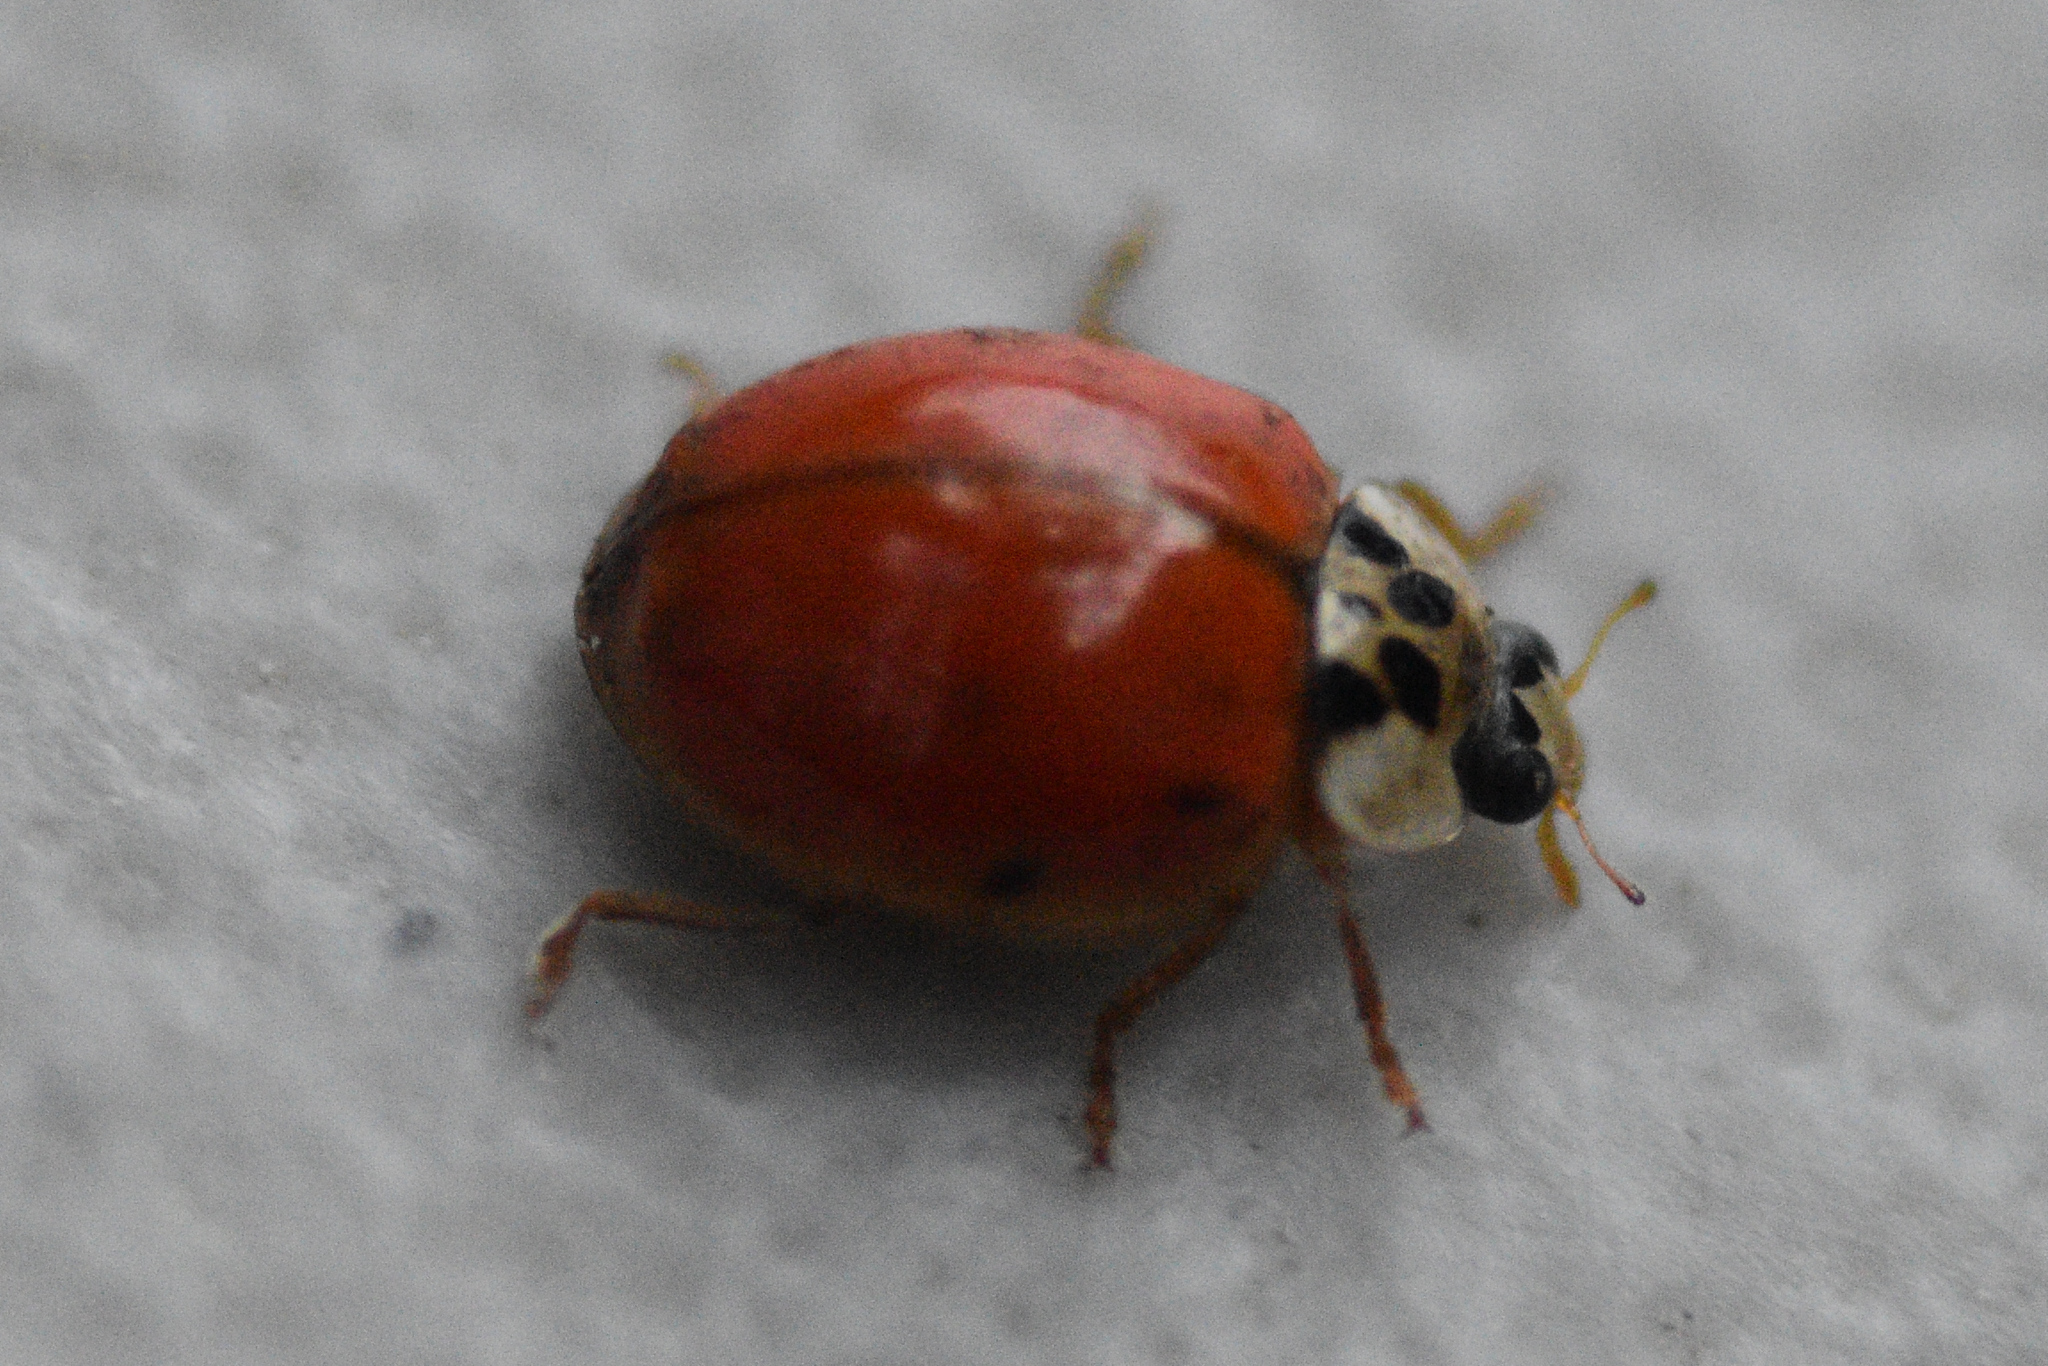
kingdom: Animalia
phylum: Arthropoda
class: Insecta
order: Coleoptera
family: Coccinellidae
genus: Harmonia
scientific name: Harmonia axyridis
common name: Harlequin ladybird
